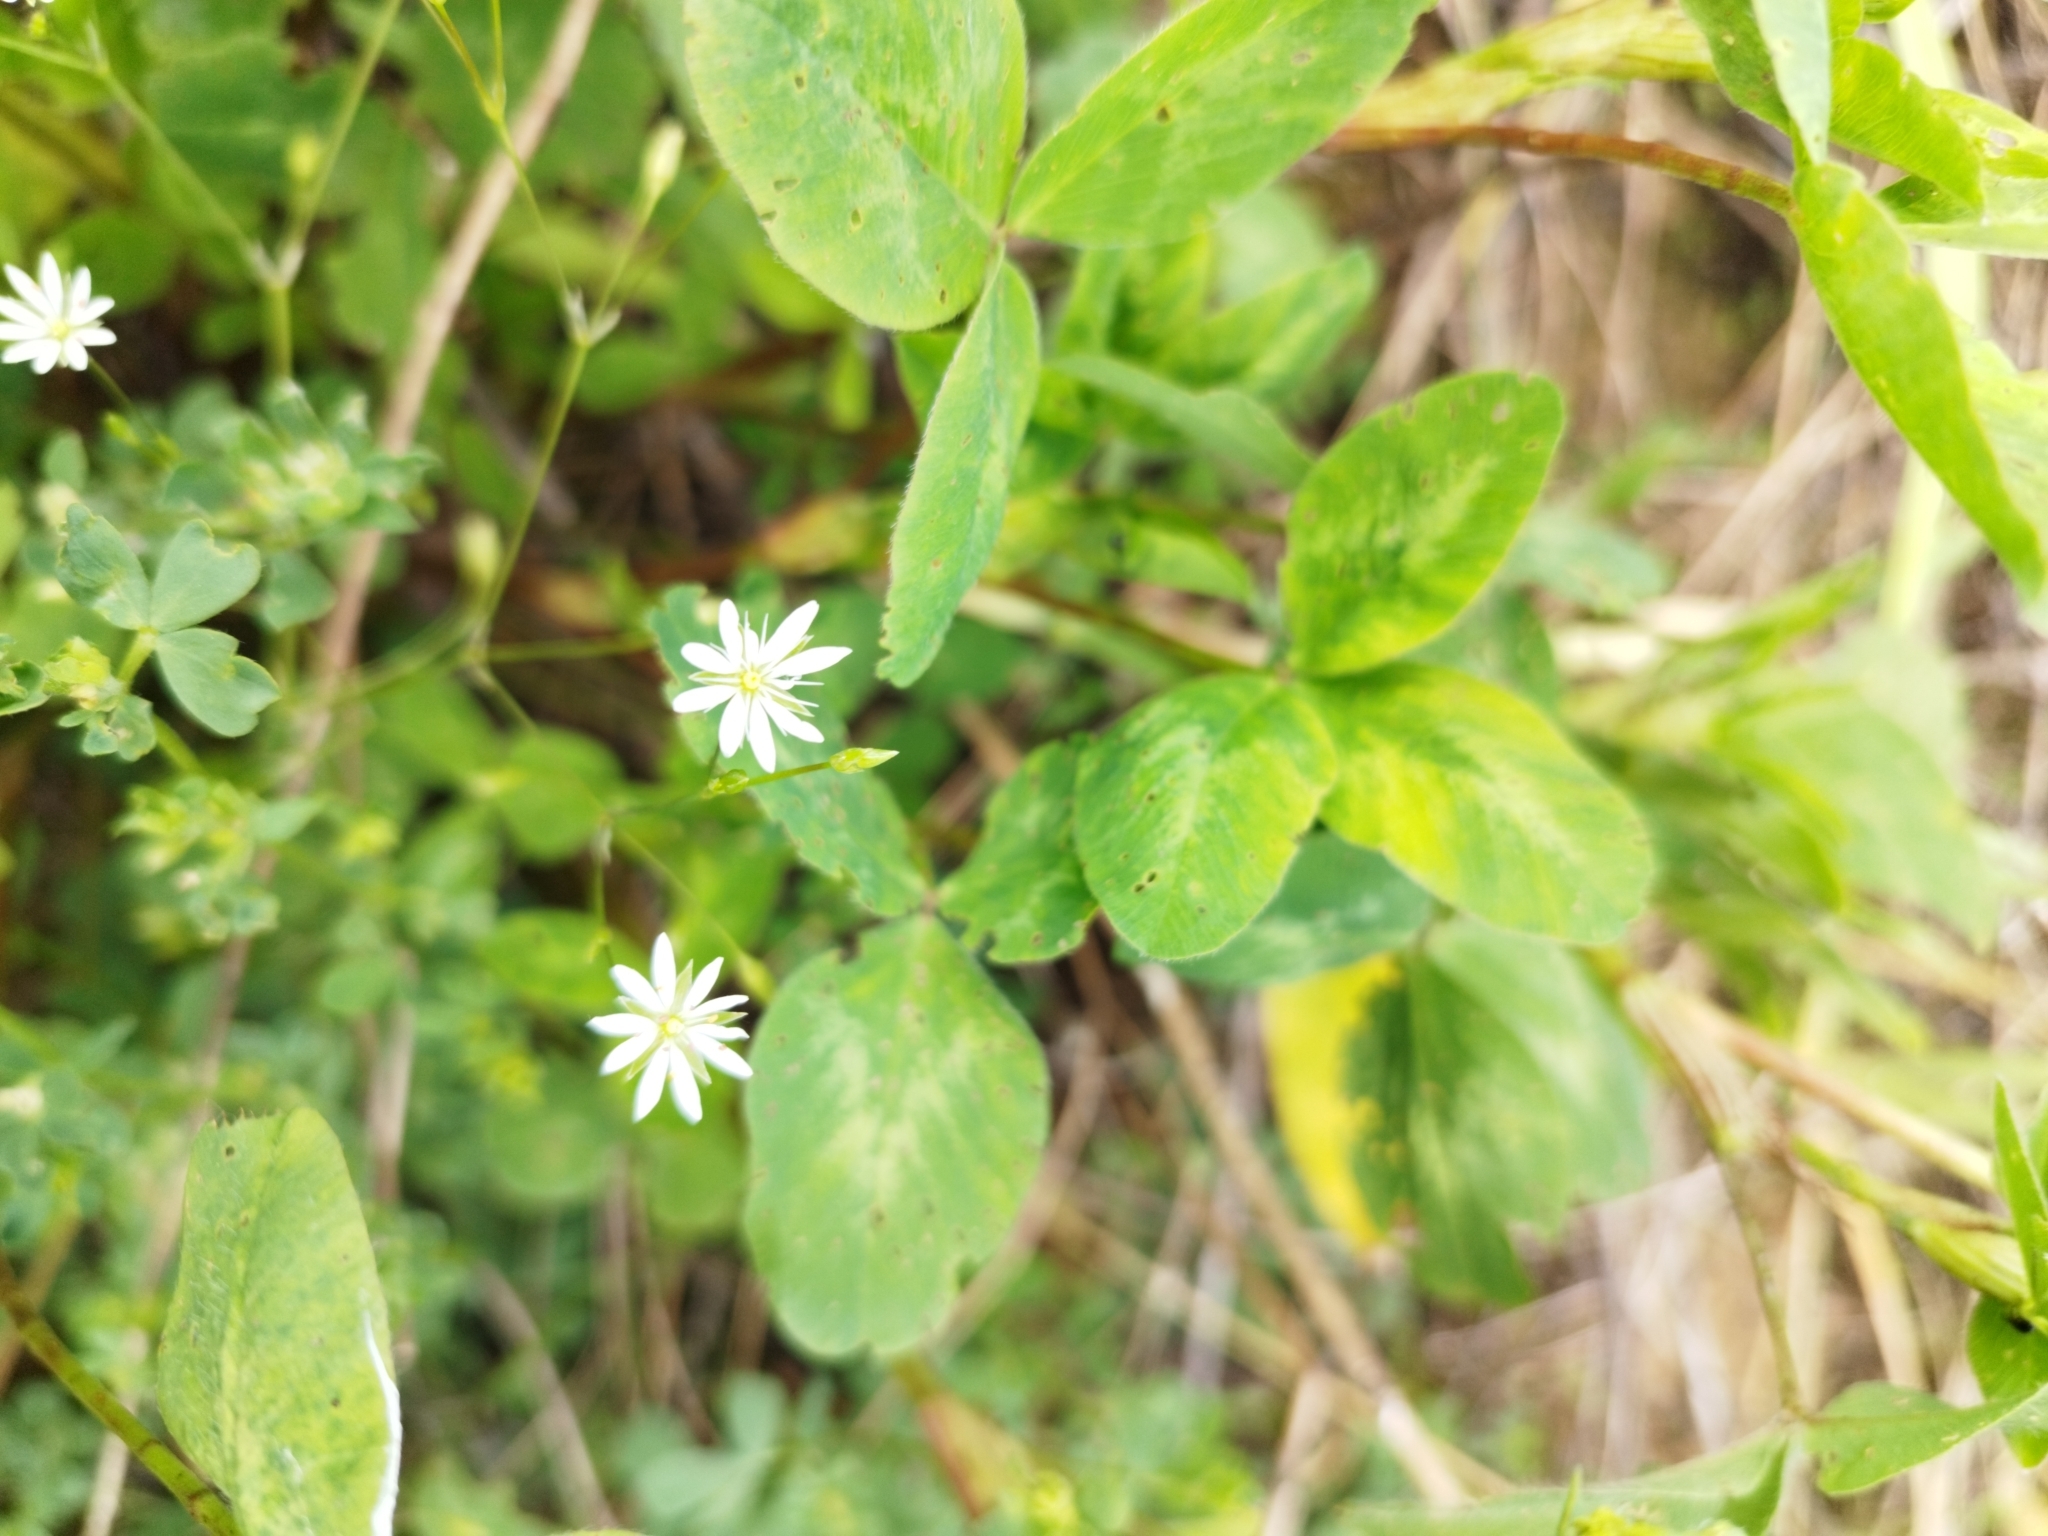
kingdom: Plantae
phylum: Tracheophyta
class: Magnoliopsida
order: Caryophyllales
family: Caryophyllaceae
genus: Stellaria
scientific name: Stellaria graminea
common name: Grass-like starwort
